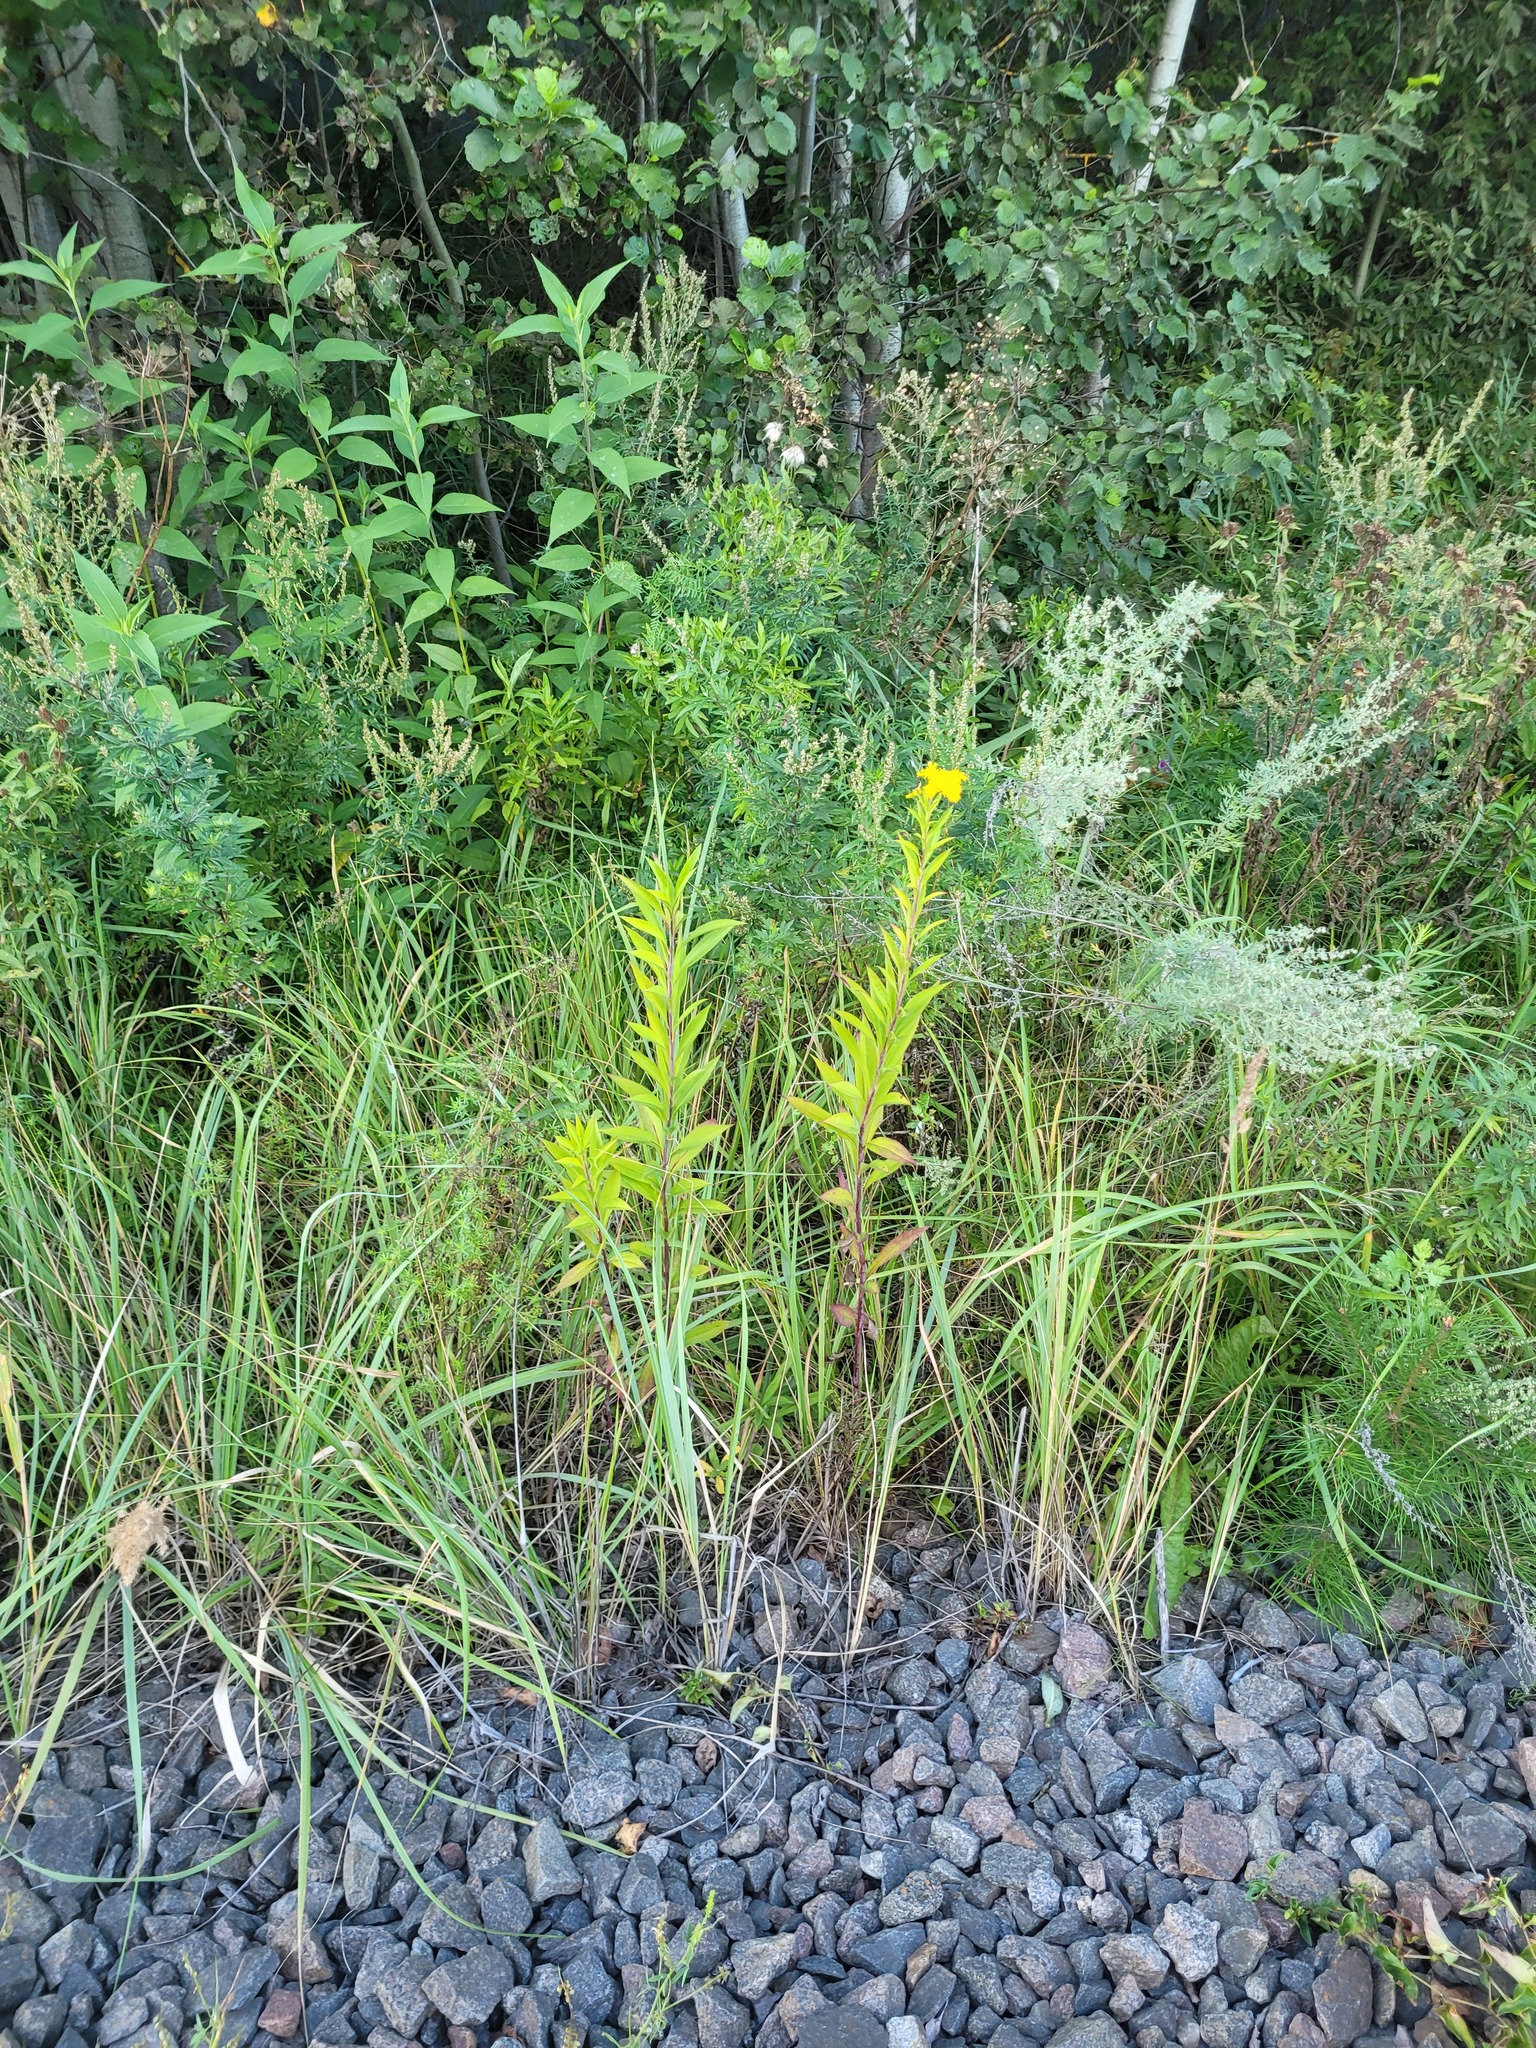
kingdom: Plantae
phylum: Tracheophyta
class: Magnoliopsida
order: Asterales
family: Asteraceae
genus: Solidago
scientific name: Solidago gigantea
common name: Giant goldenrod
